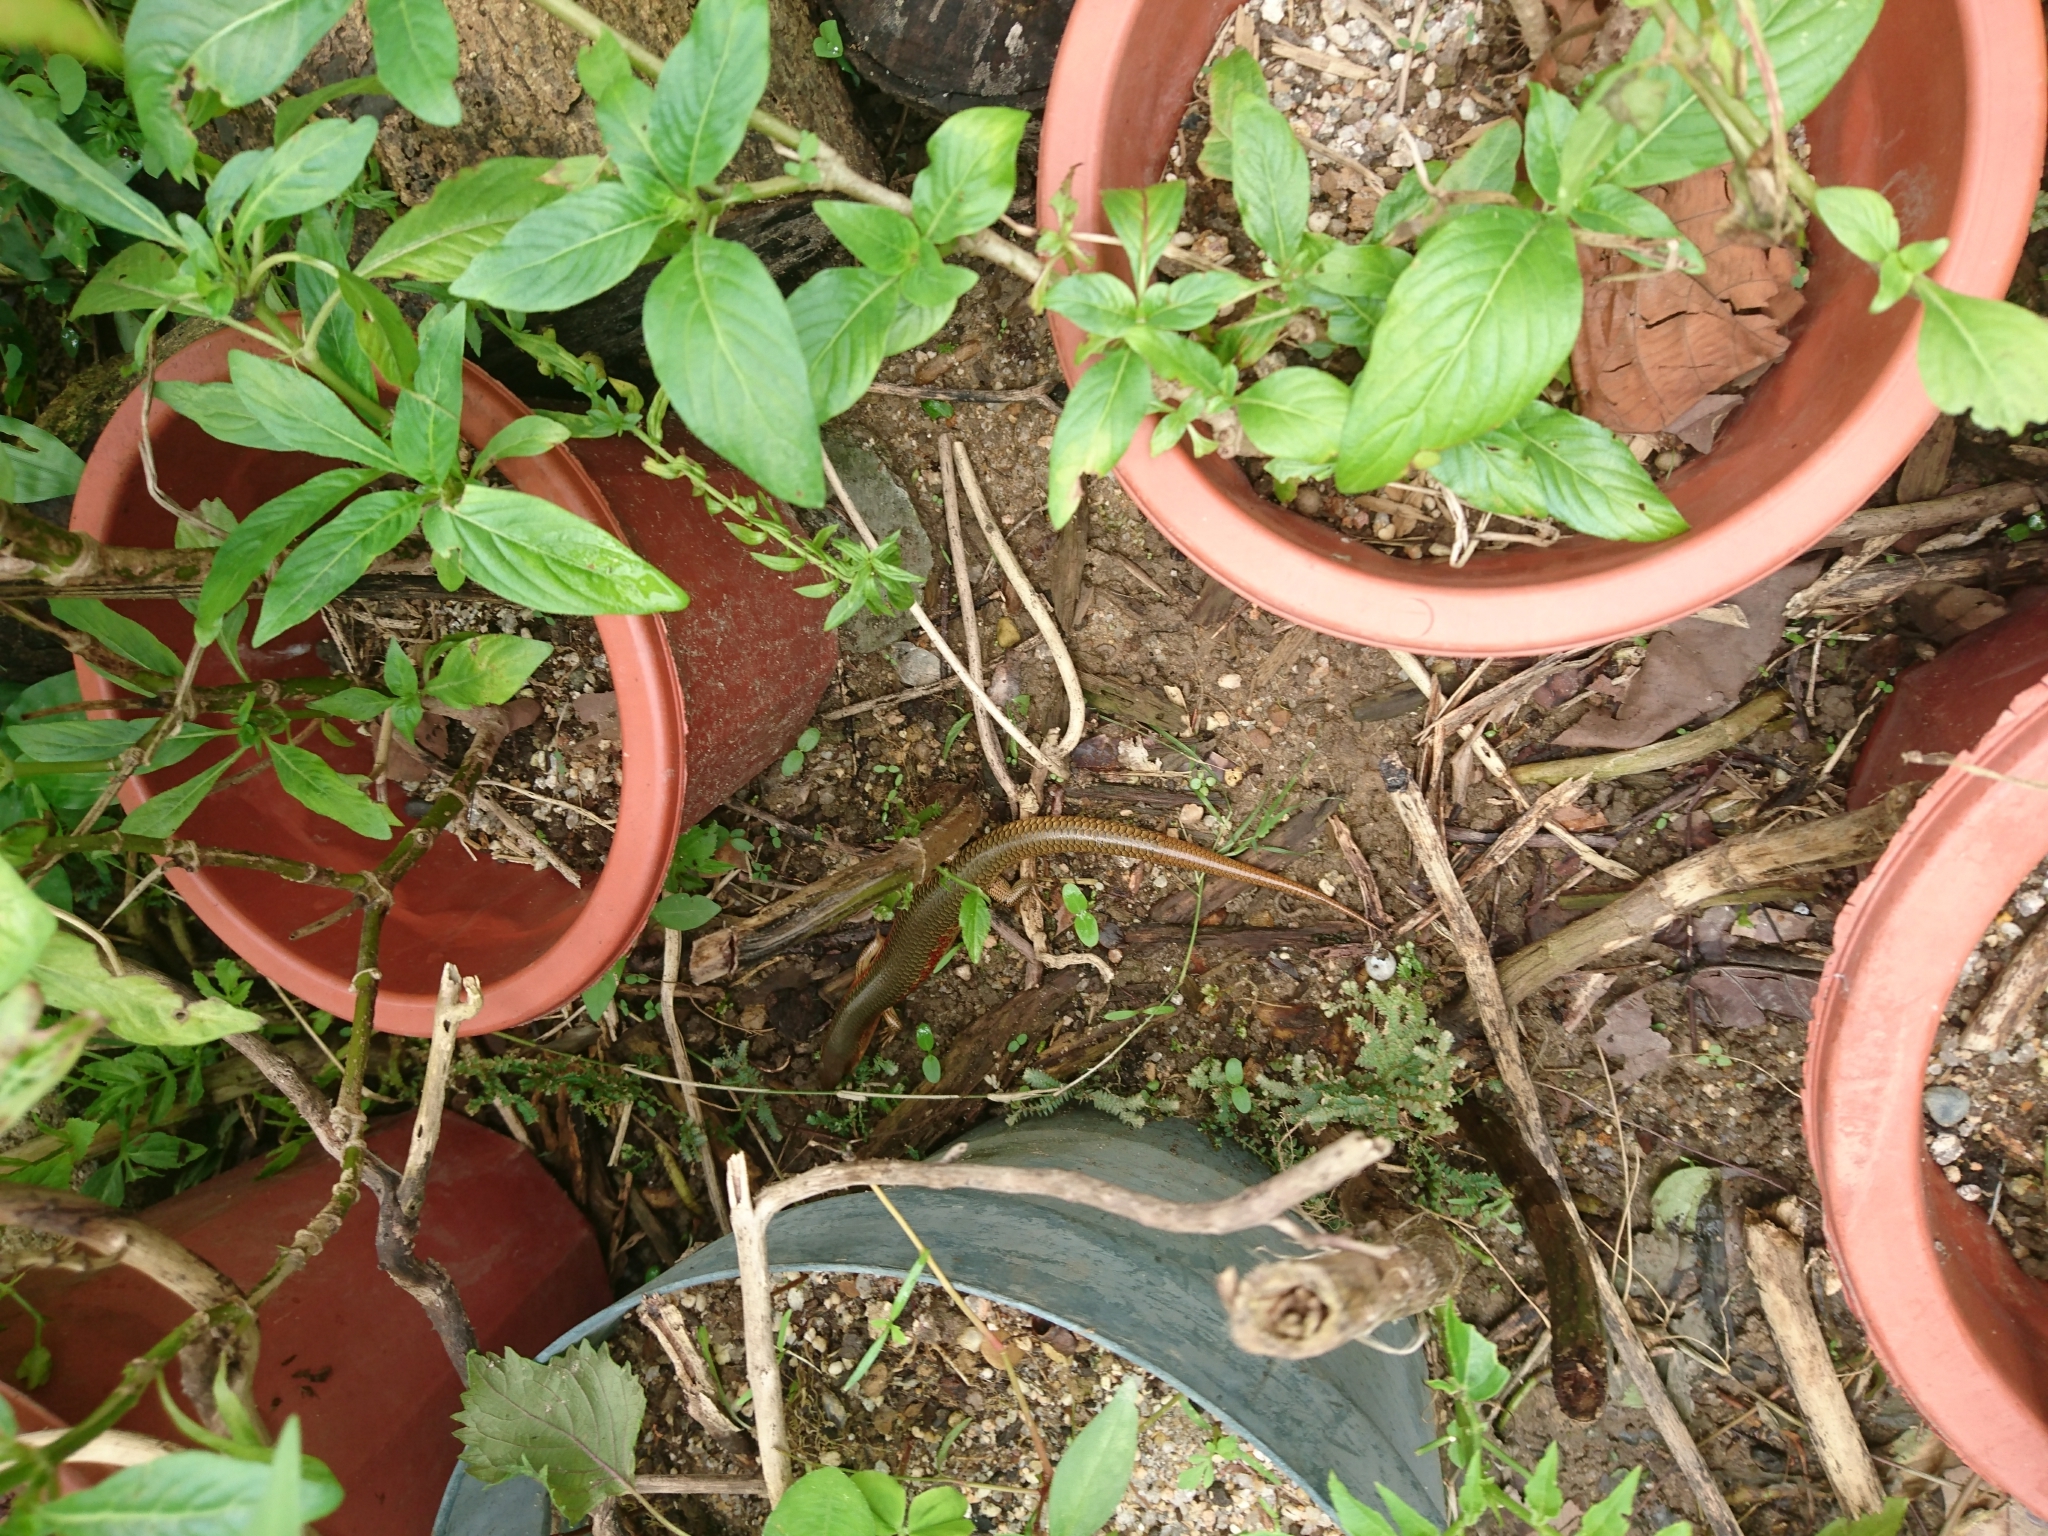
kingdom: Animalia
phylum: Chordata
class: Squamata
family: Scincidae
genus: Plestiodon
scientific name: Plestiodon chinensis
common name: Chinese blue-tailed skink
